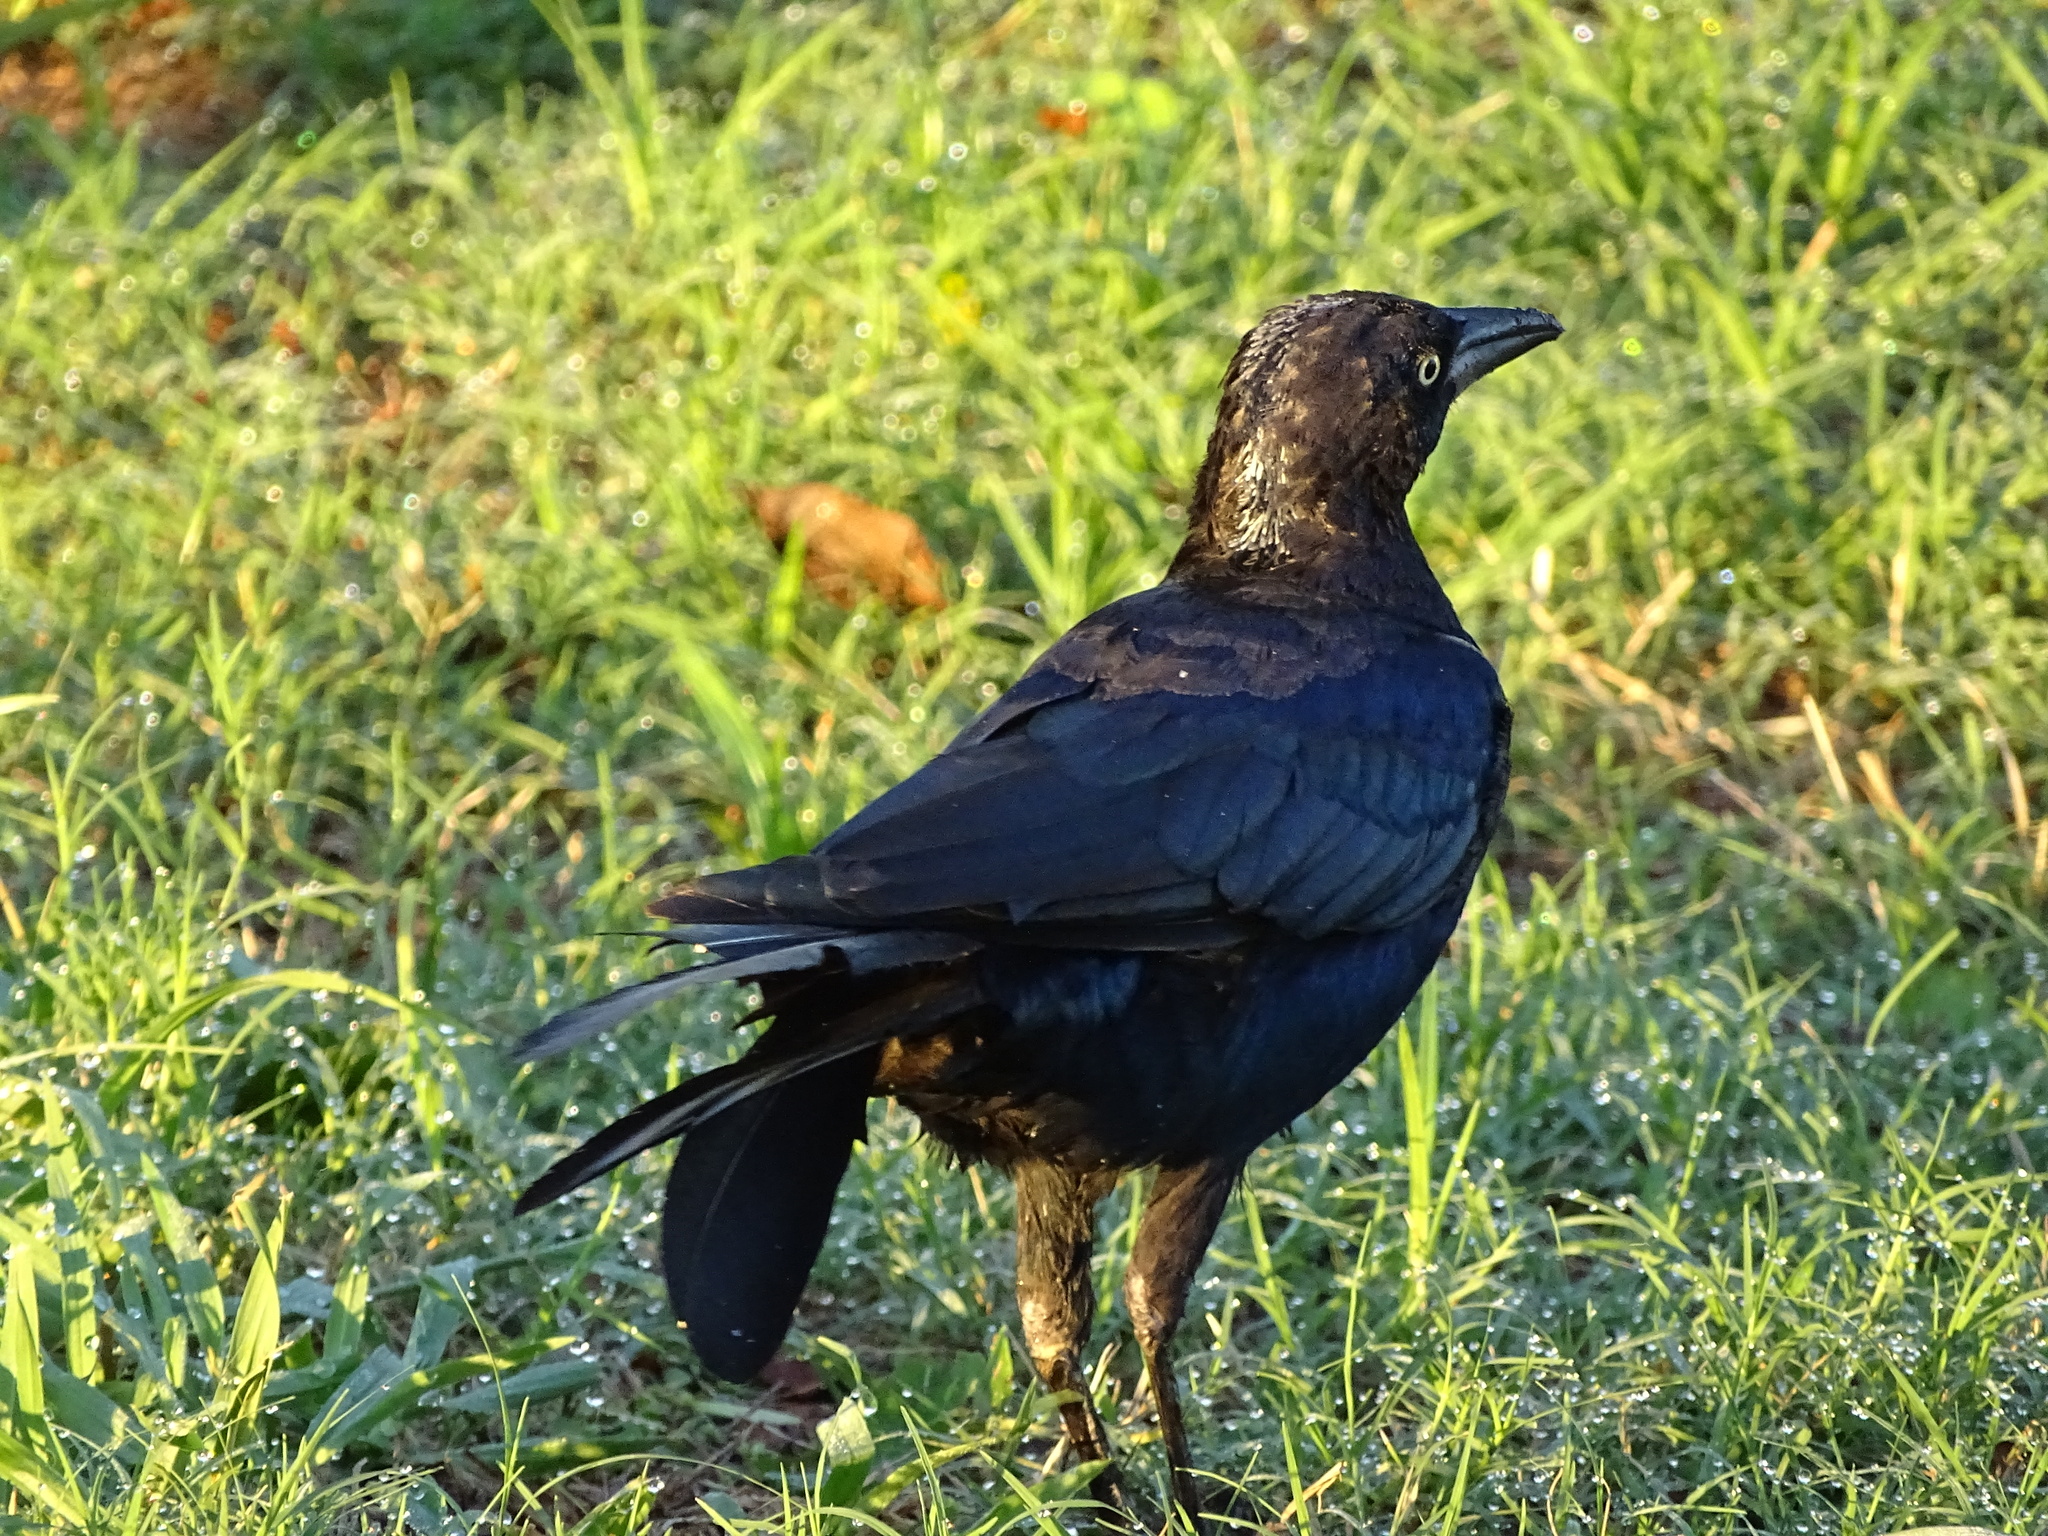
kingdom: Animalia
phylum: Chordata
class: Aves
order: Passeriformes
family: Corvidae
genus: Corvus
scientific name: Corvus brachyrhynchos
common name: American crow
